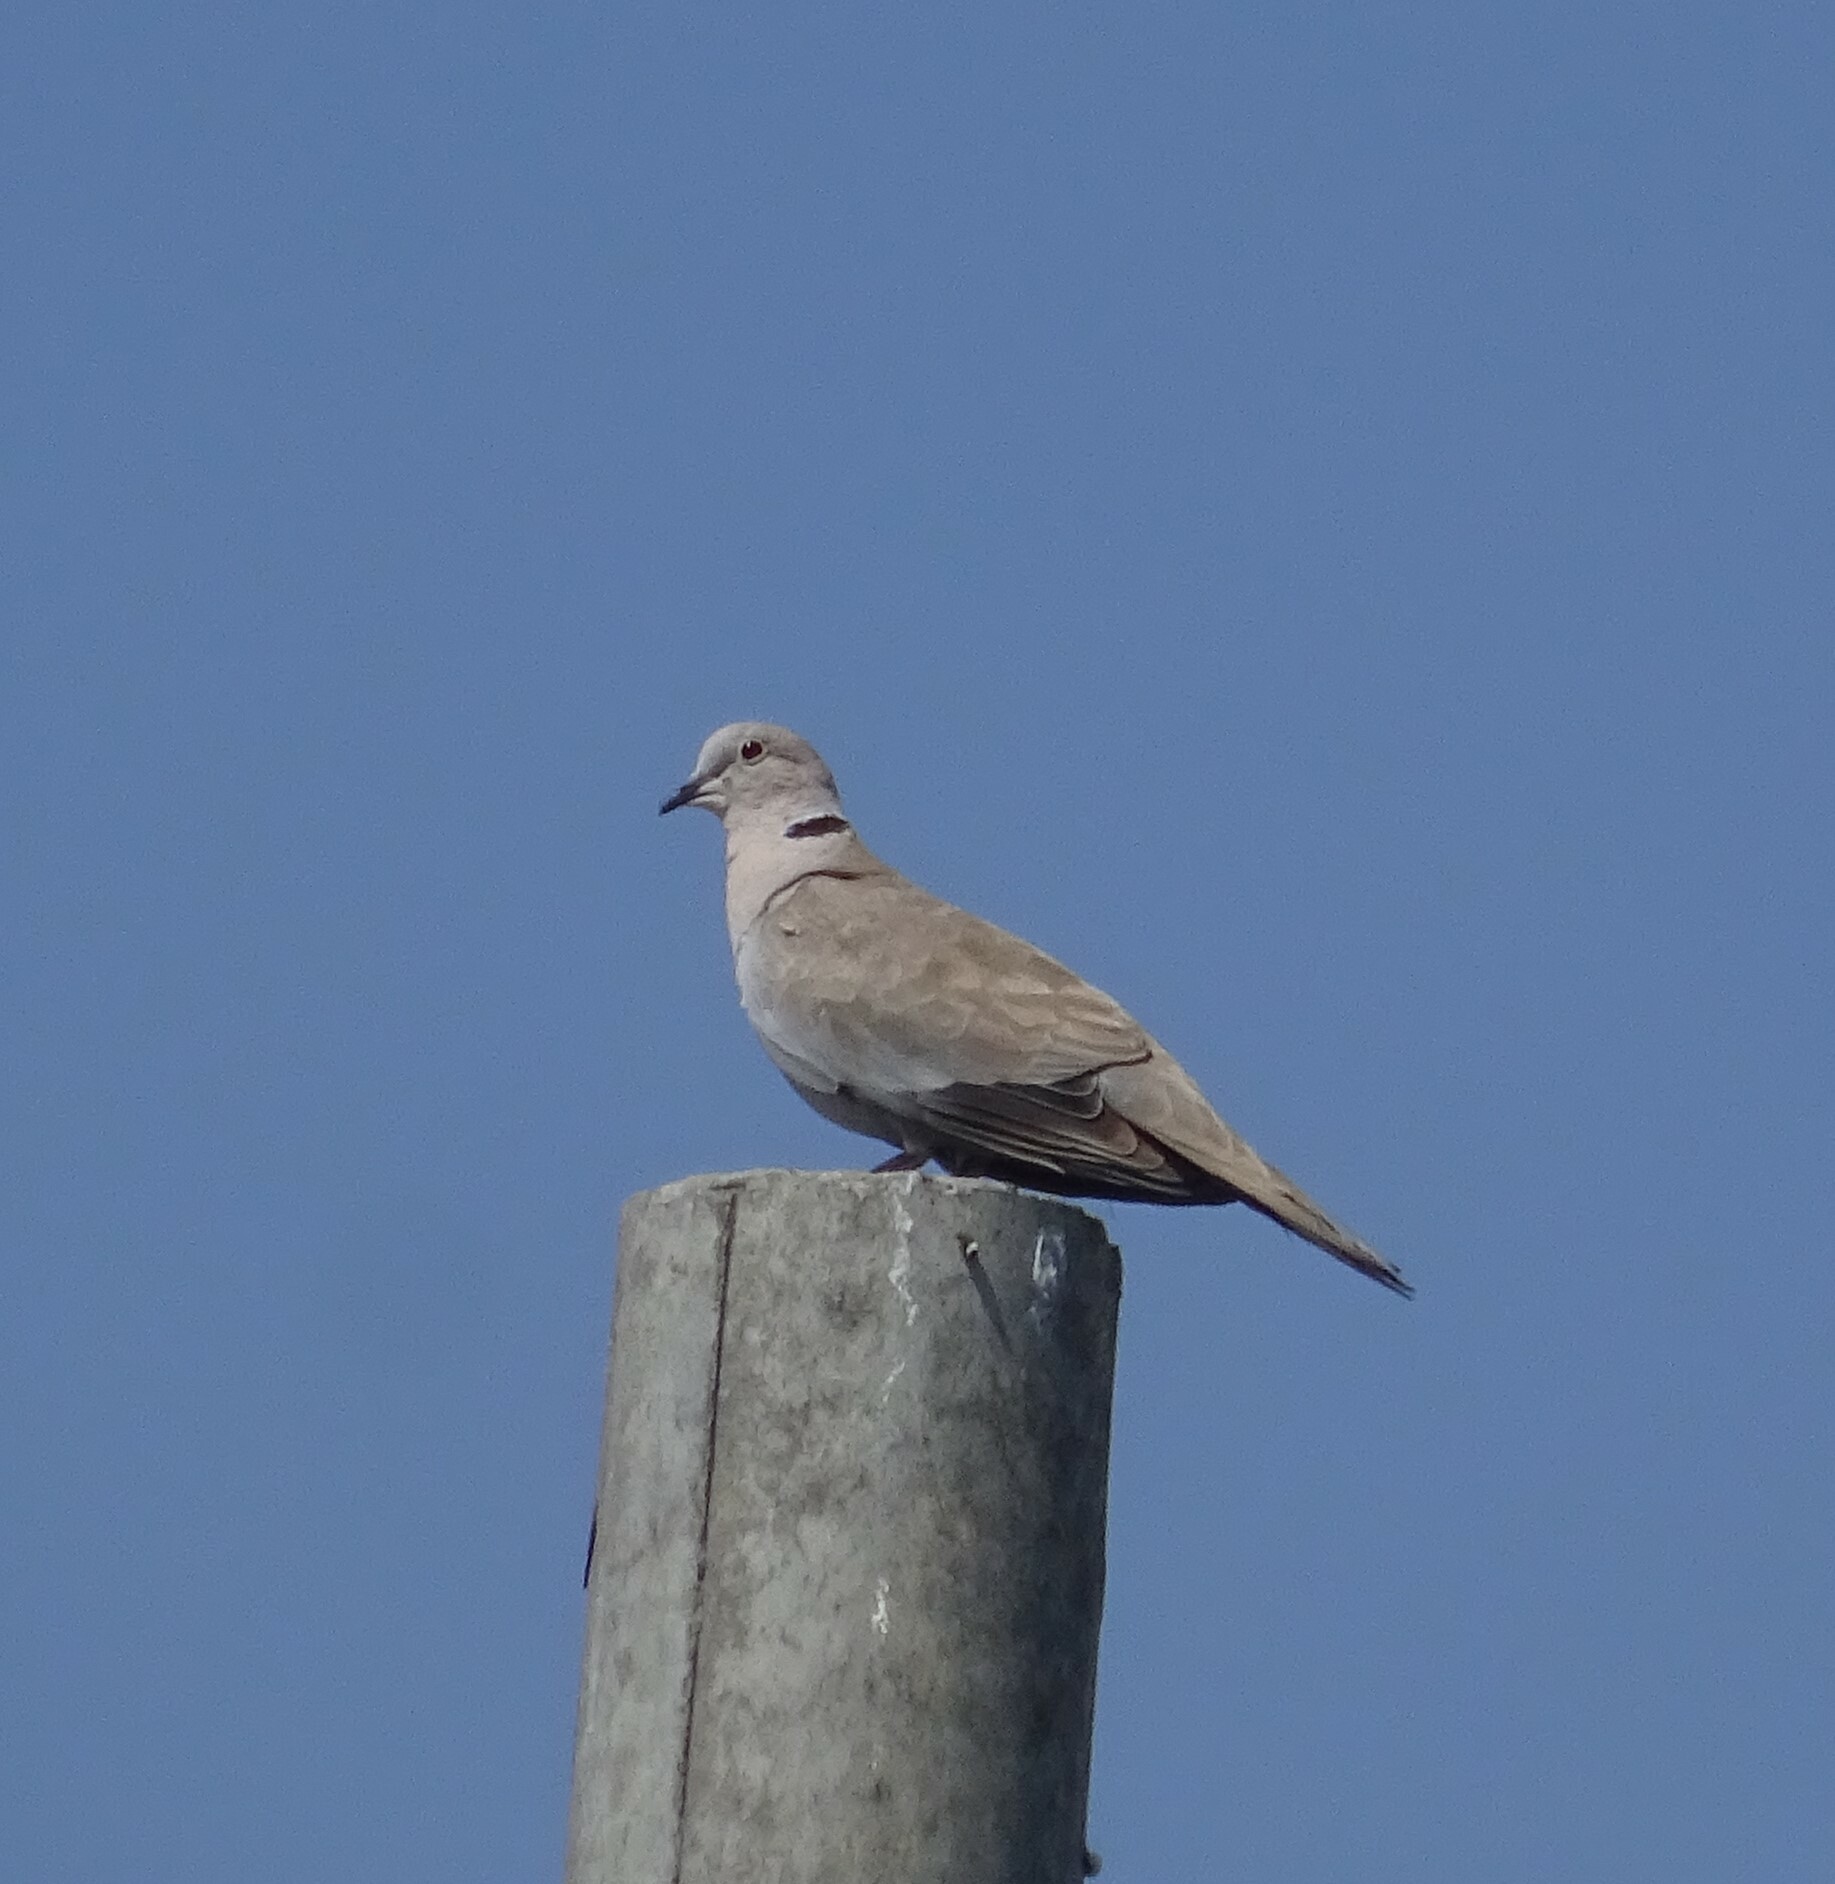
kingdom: Animalia
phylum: Chordata
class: Aves
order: Columbiformes
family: Columbidae
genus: Streptopelia
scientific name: Streptopelia decaocto
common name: Eurasian collared dove
